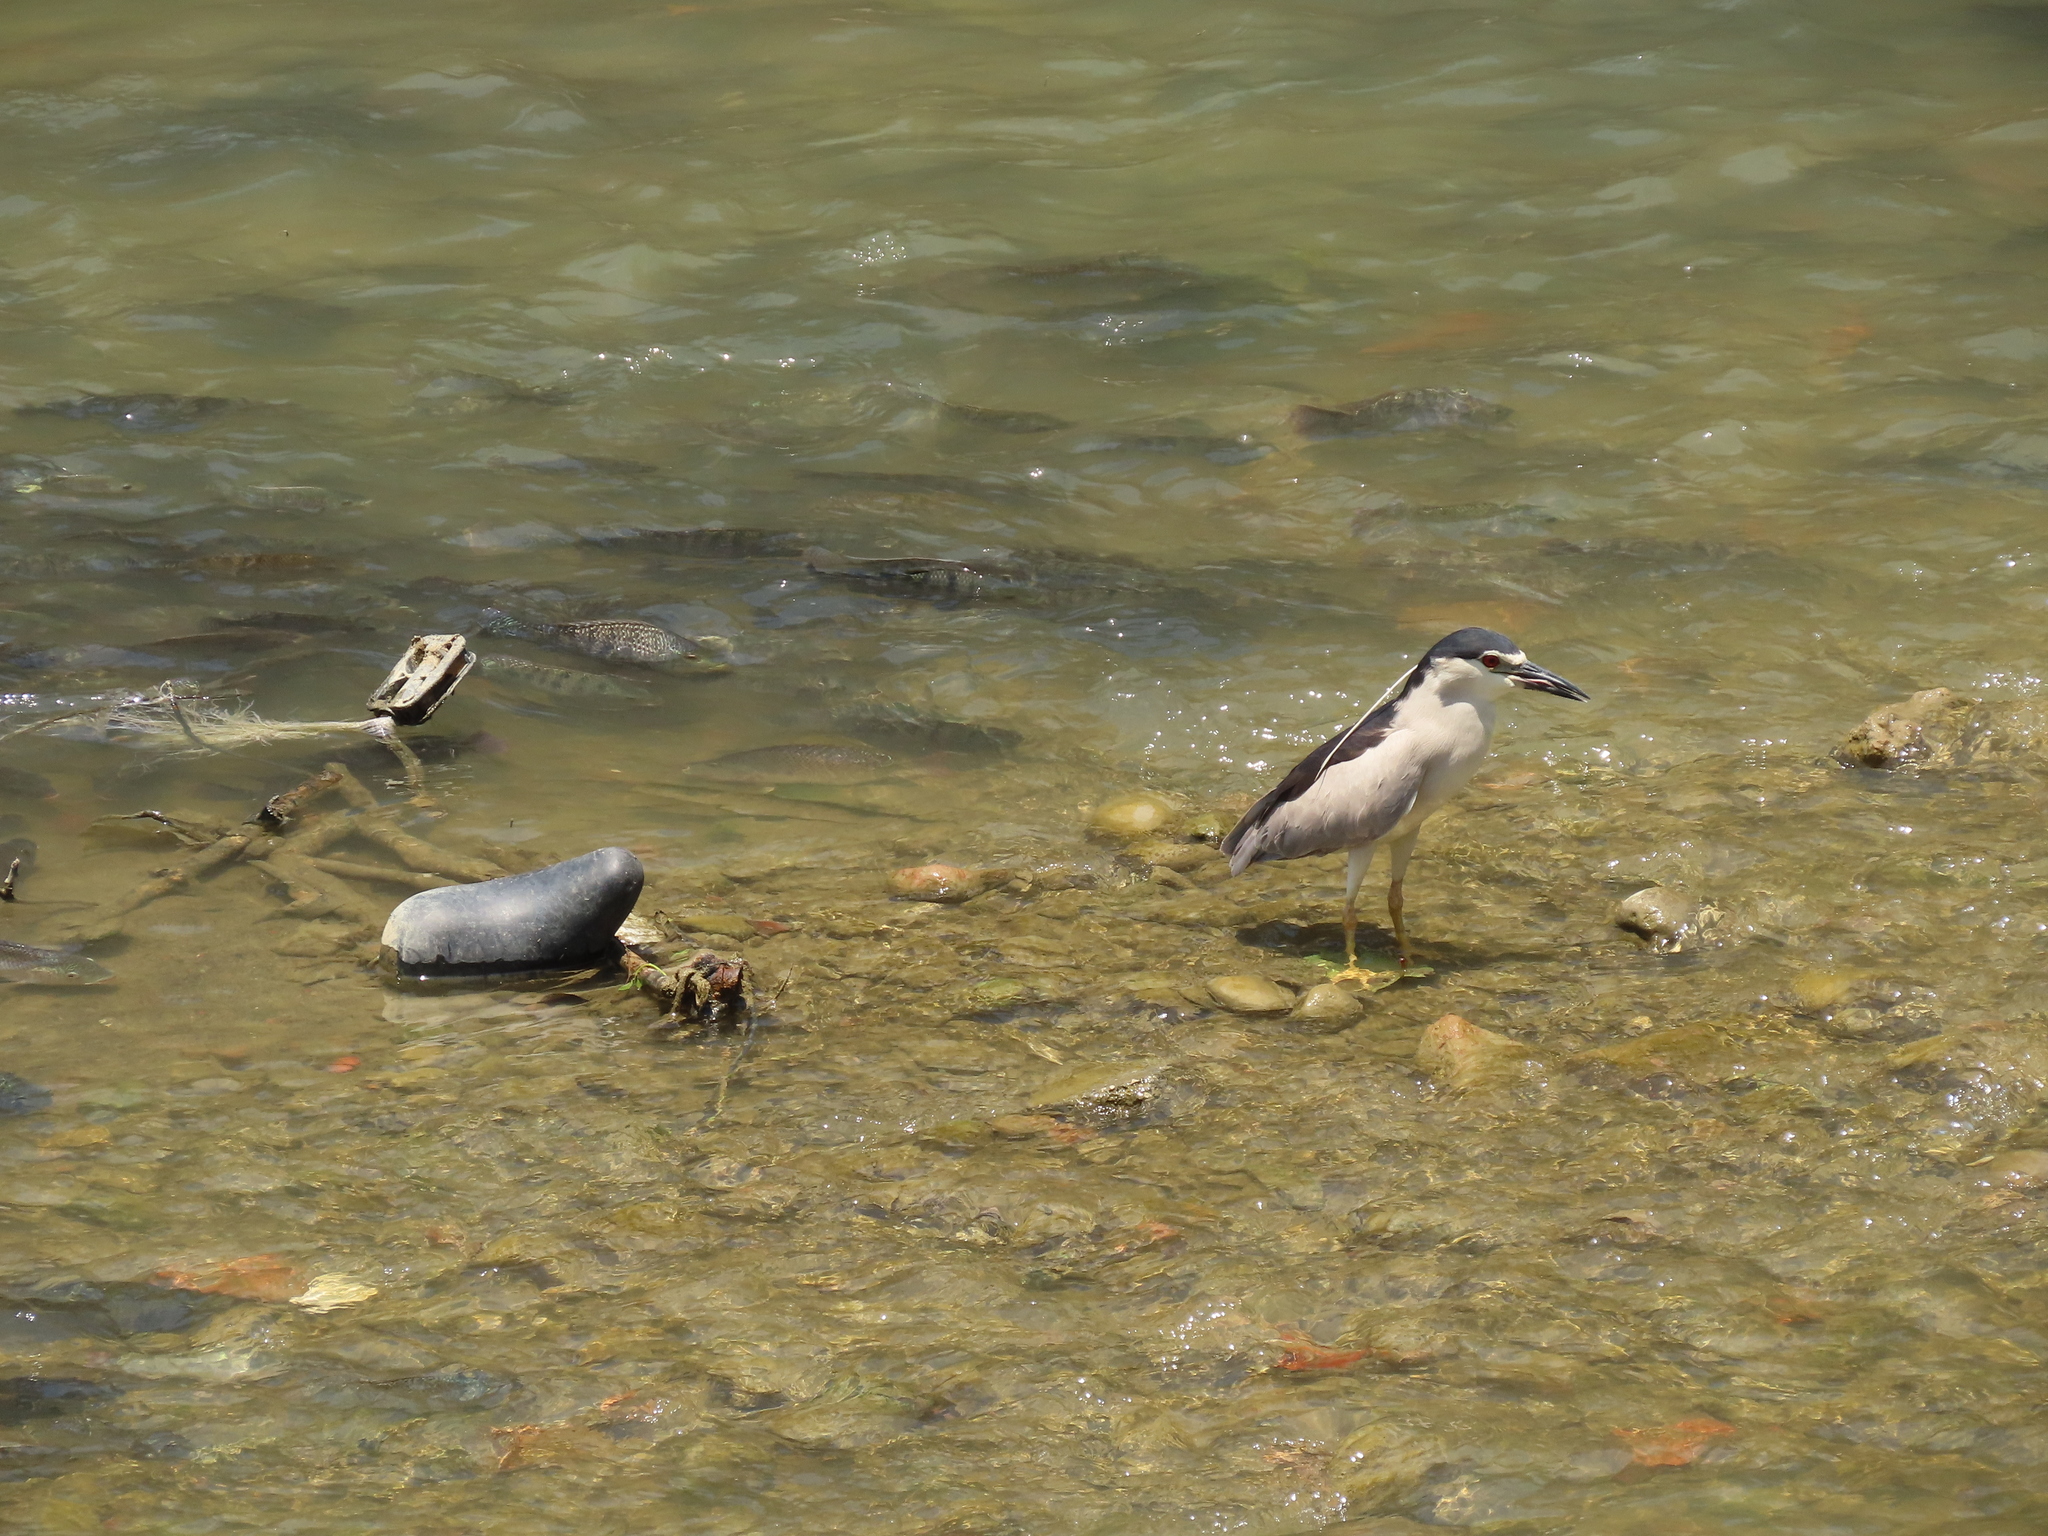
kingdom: Animalia
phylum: Chordata
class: Aves
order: Pelecaniformes
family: Ardeidae
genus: Nycticorax
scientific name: Nycticorax nycticorax
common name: Black-crowned night heron
